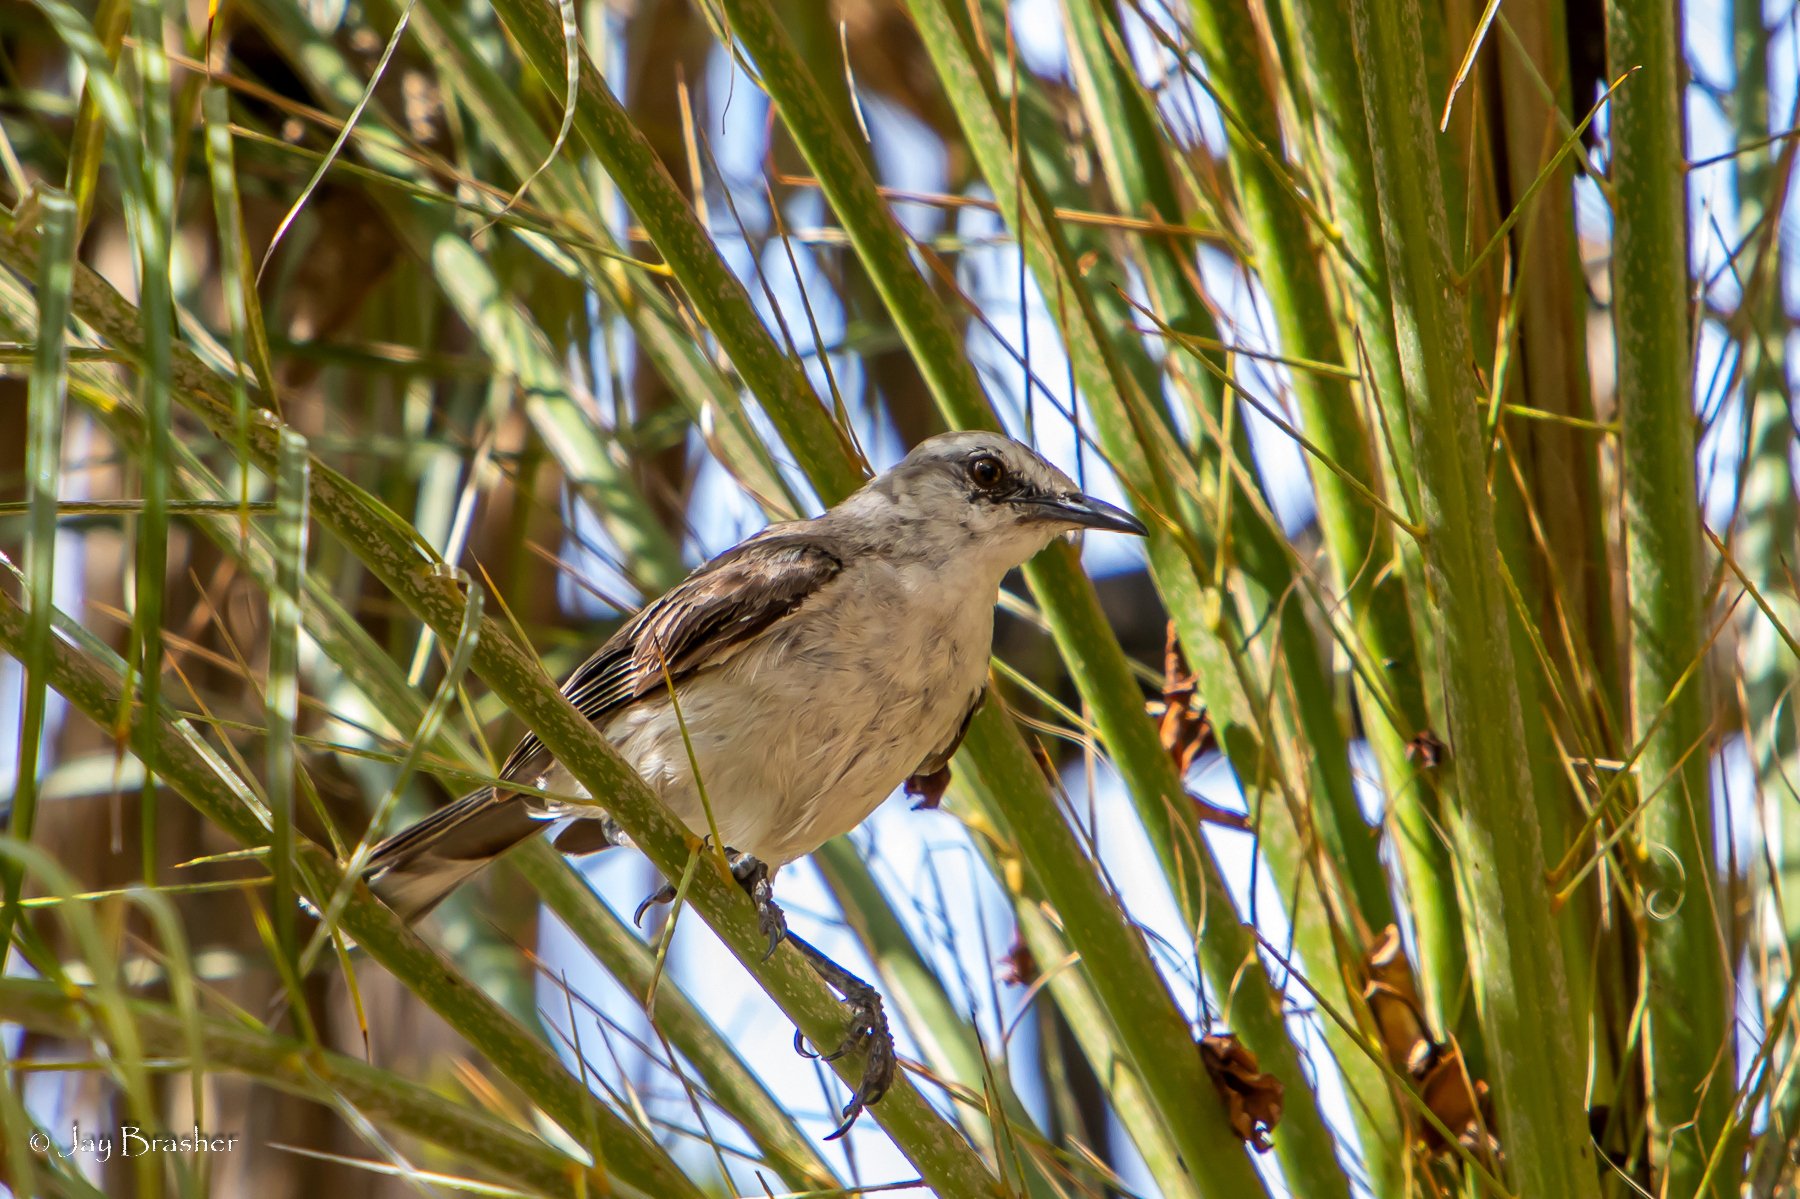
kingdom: Animalia
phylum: Chordata
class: Aves
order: Passeriformes
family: Mimidae
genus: Mimus
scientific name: Mimus gilvus
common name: Tropical mockingbird
